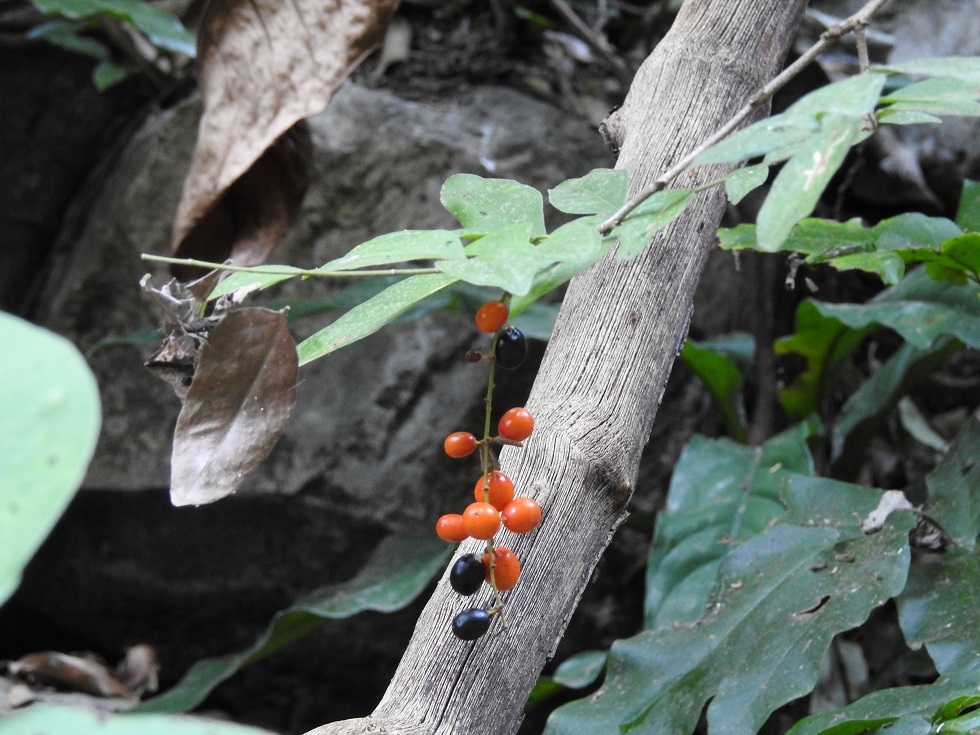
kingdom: Plantae
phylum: Tracheophyta
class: Magnoliopsida
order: Picramniales
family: Picramniaceae
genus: Picramnia
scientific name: Picramnia antidesma
